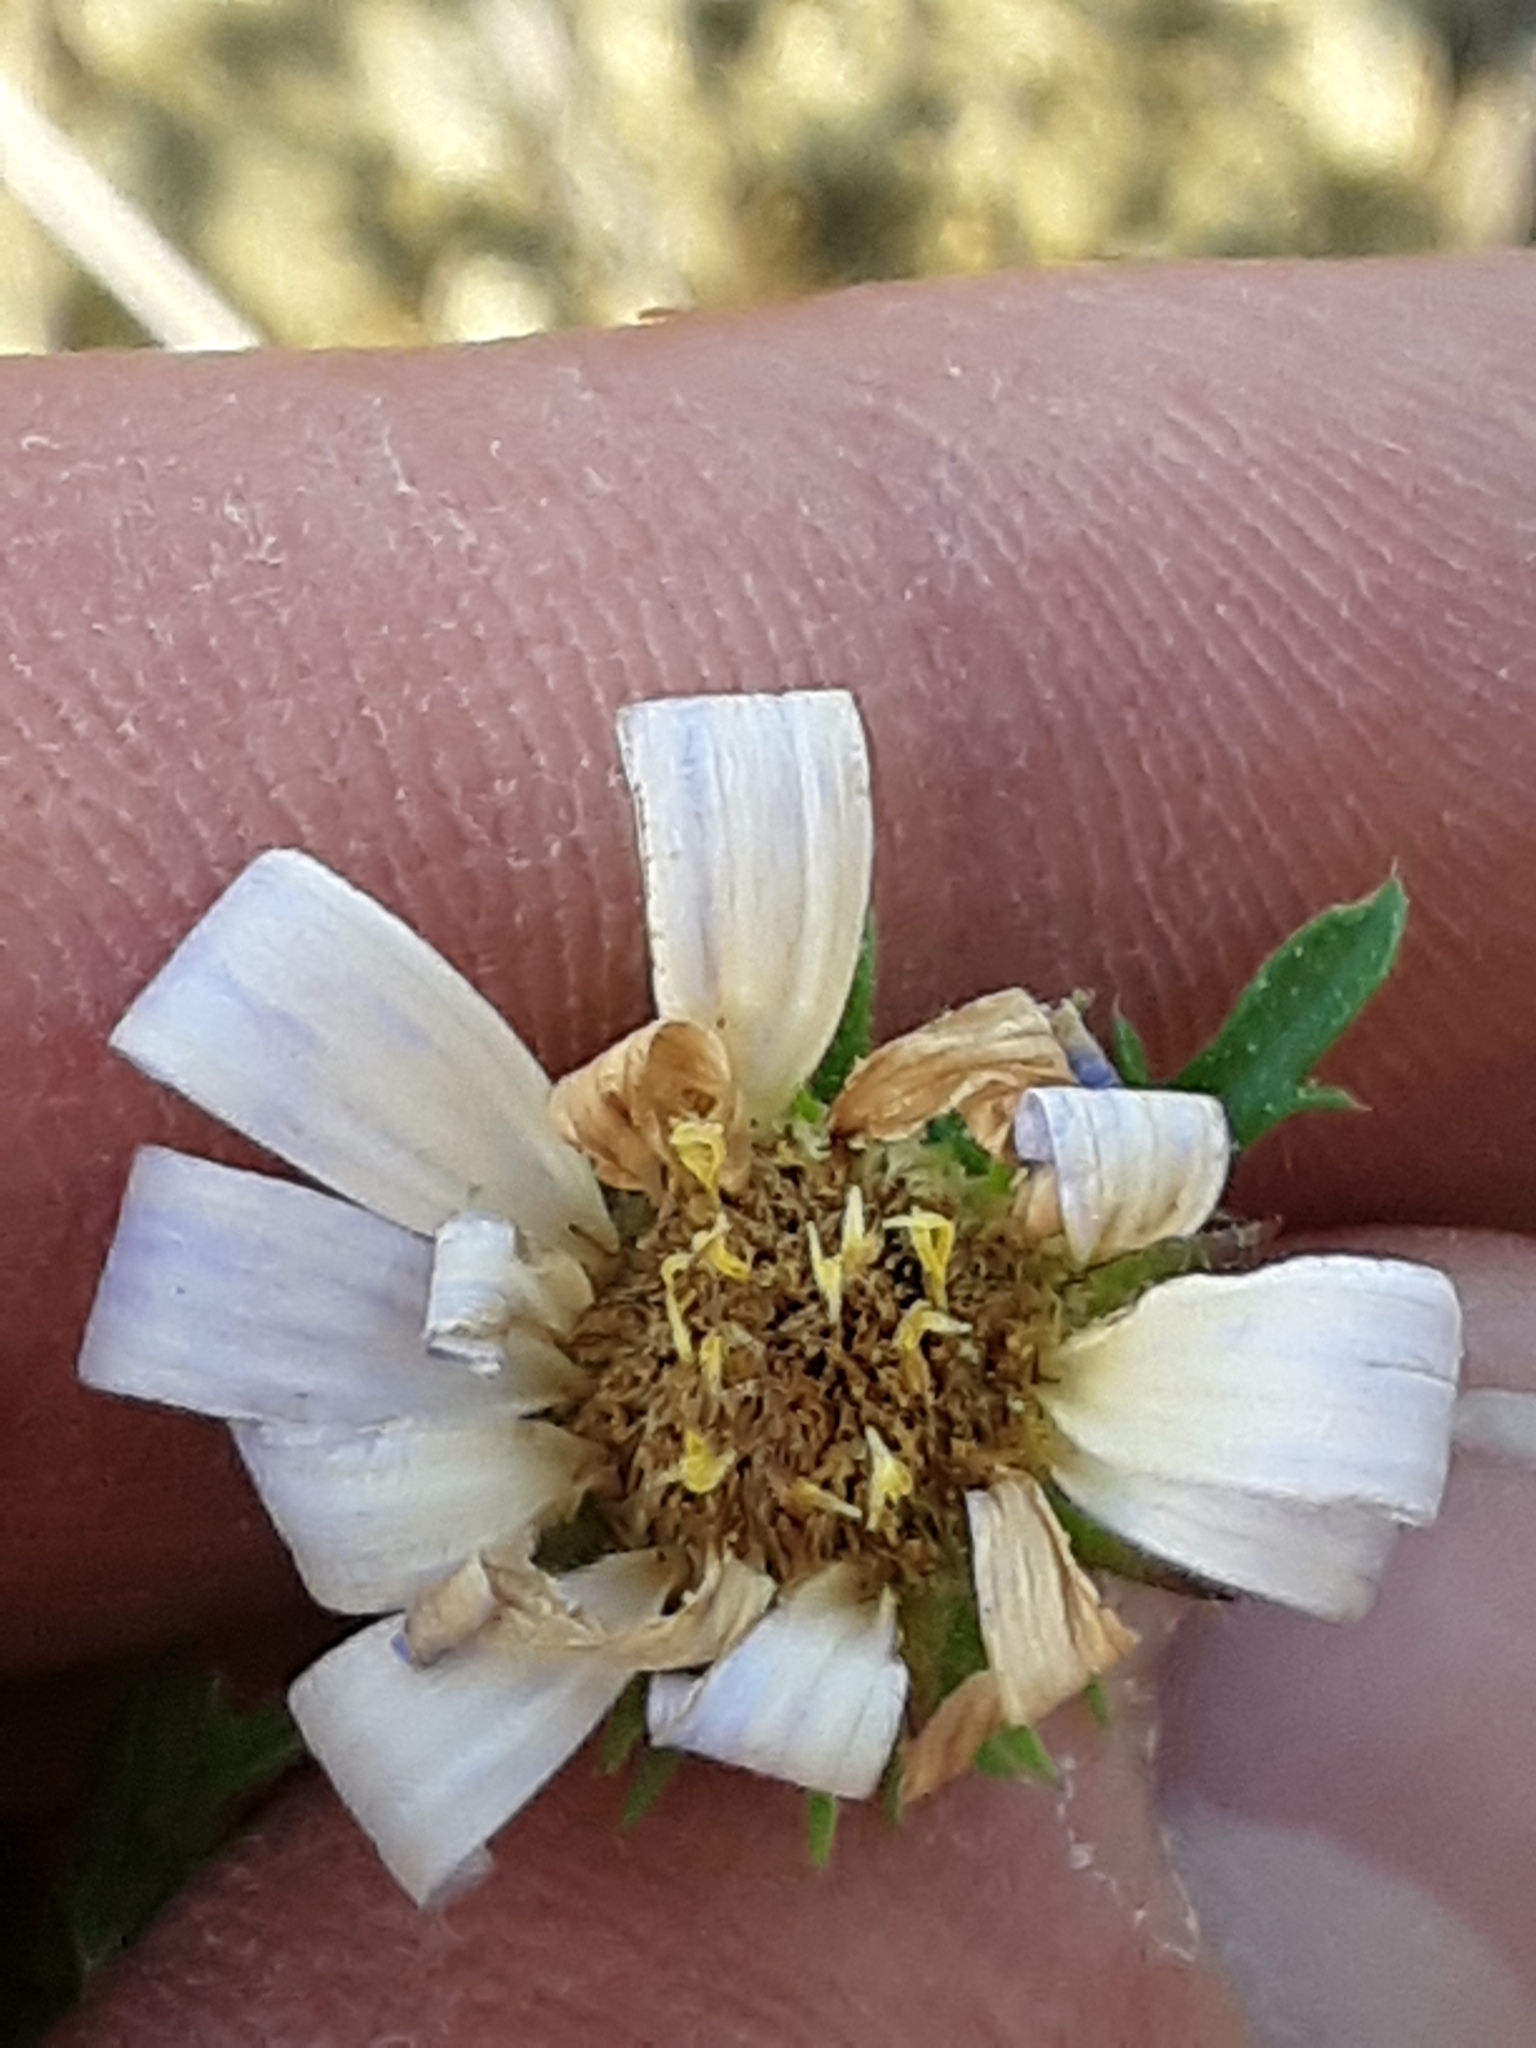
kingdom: Plantae
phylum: Tracheophyta
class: Magnoliopsida
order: Asterales
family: Asteraceae
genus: Machaeranthera
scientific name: Machaeranthera tanacetifolia
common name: Tansy-aster
